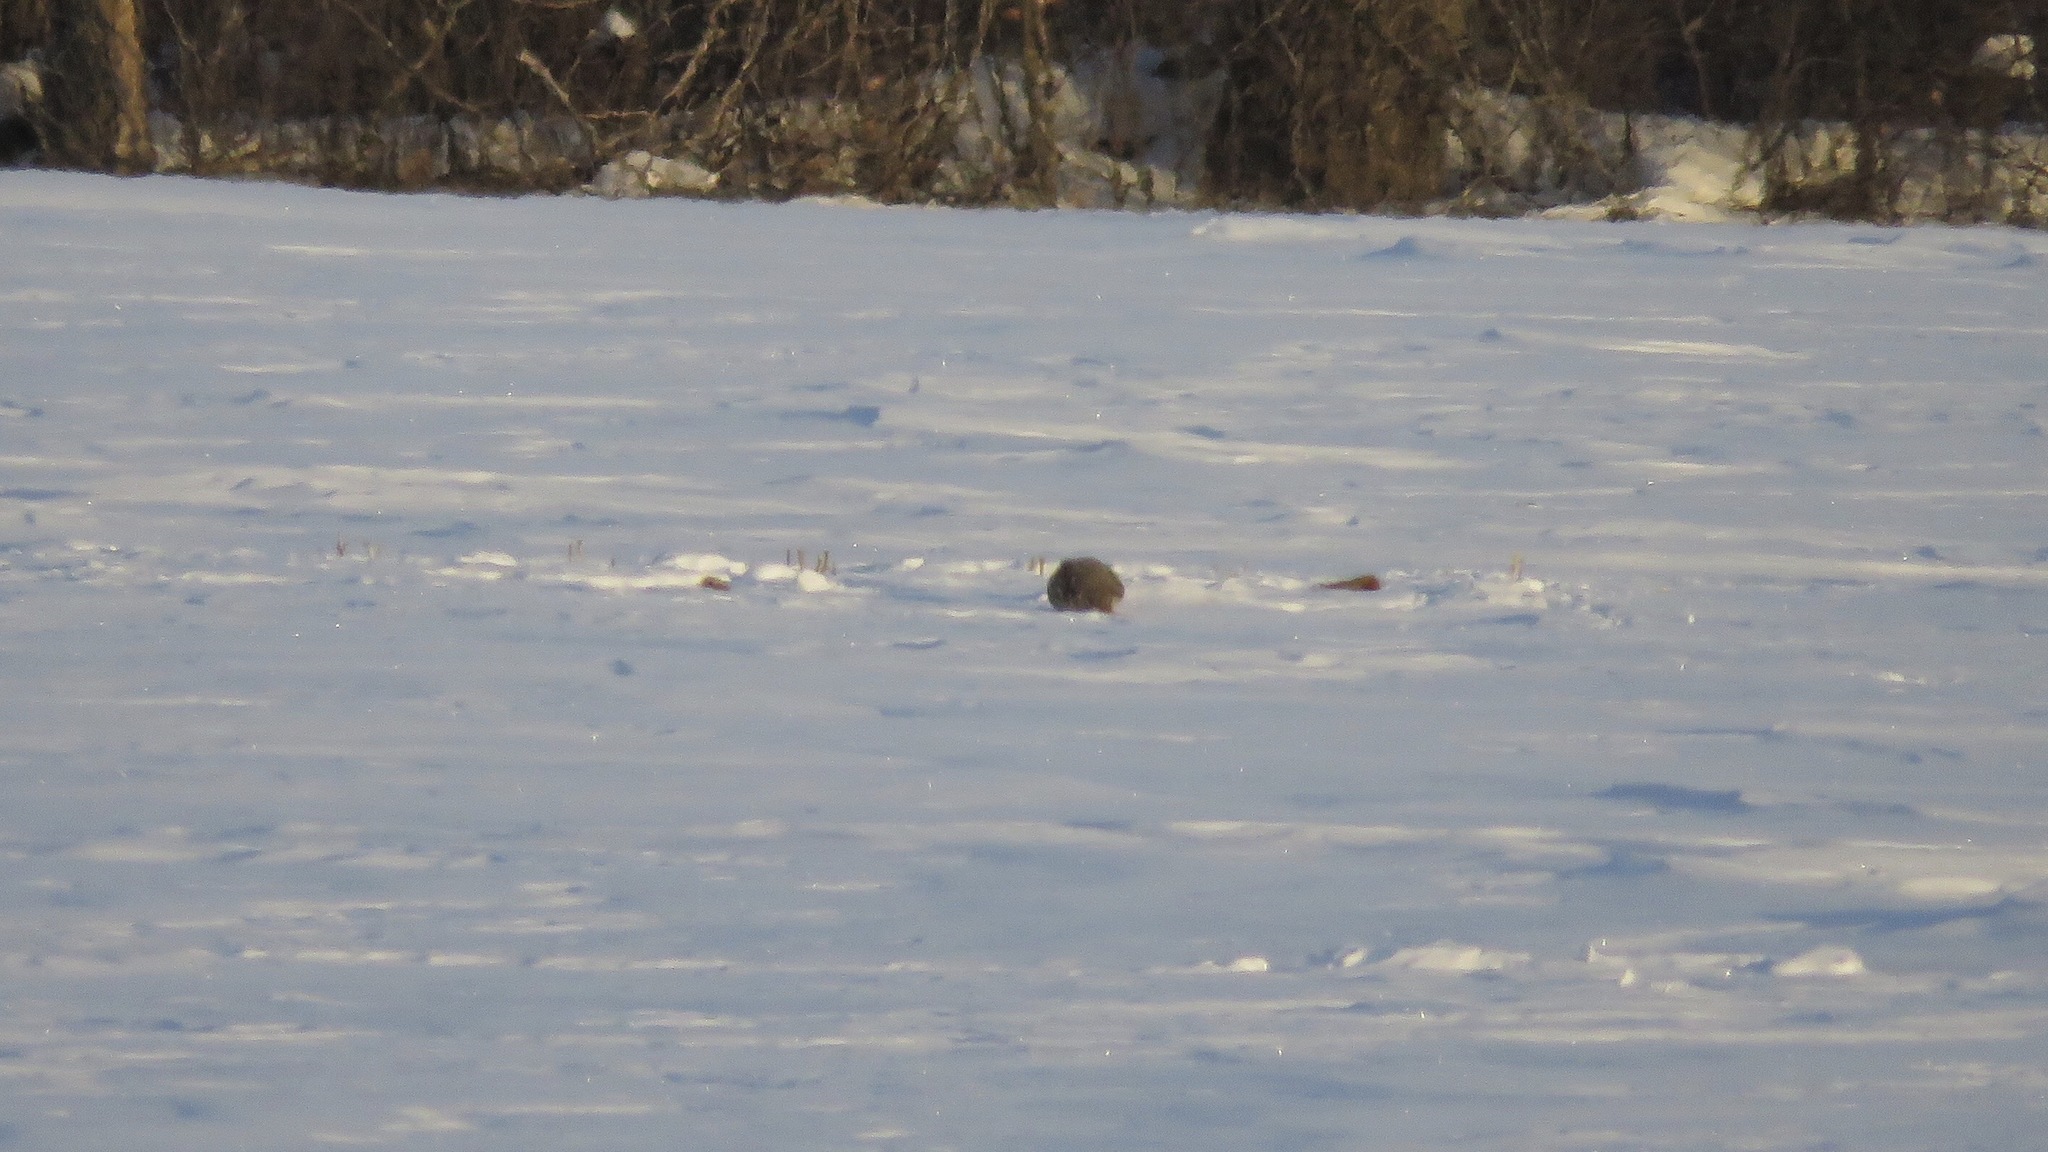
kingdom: Animalia
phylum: Chordata
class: Aves
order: Galliformes
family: Phasianidae
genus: Perdix
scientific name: Perdix perdix
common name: Grey partridge
